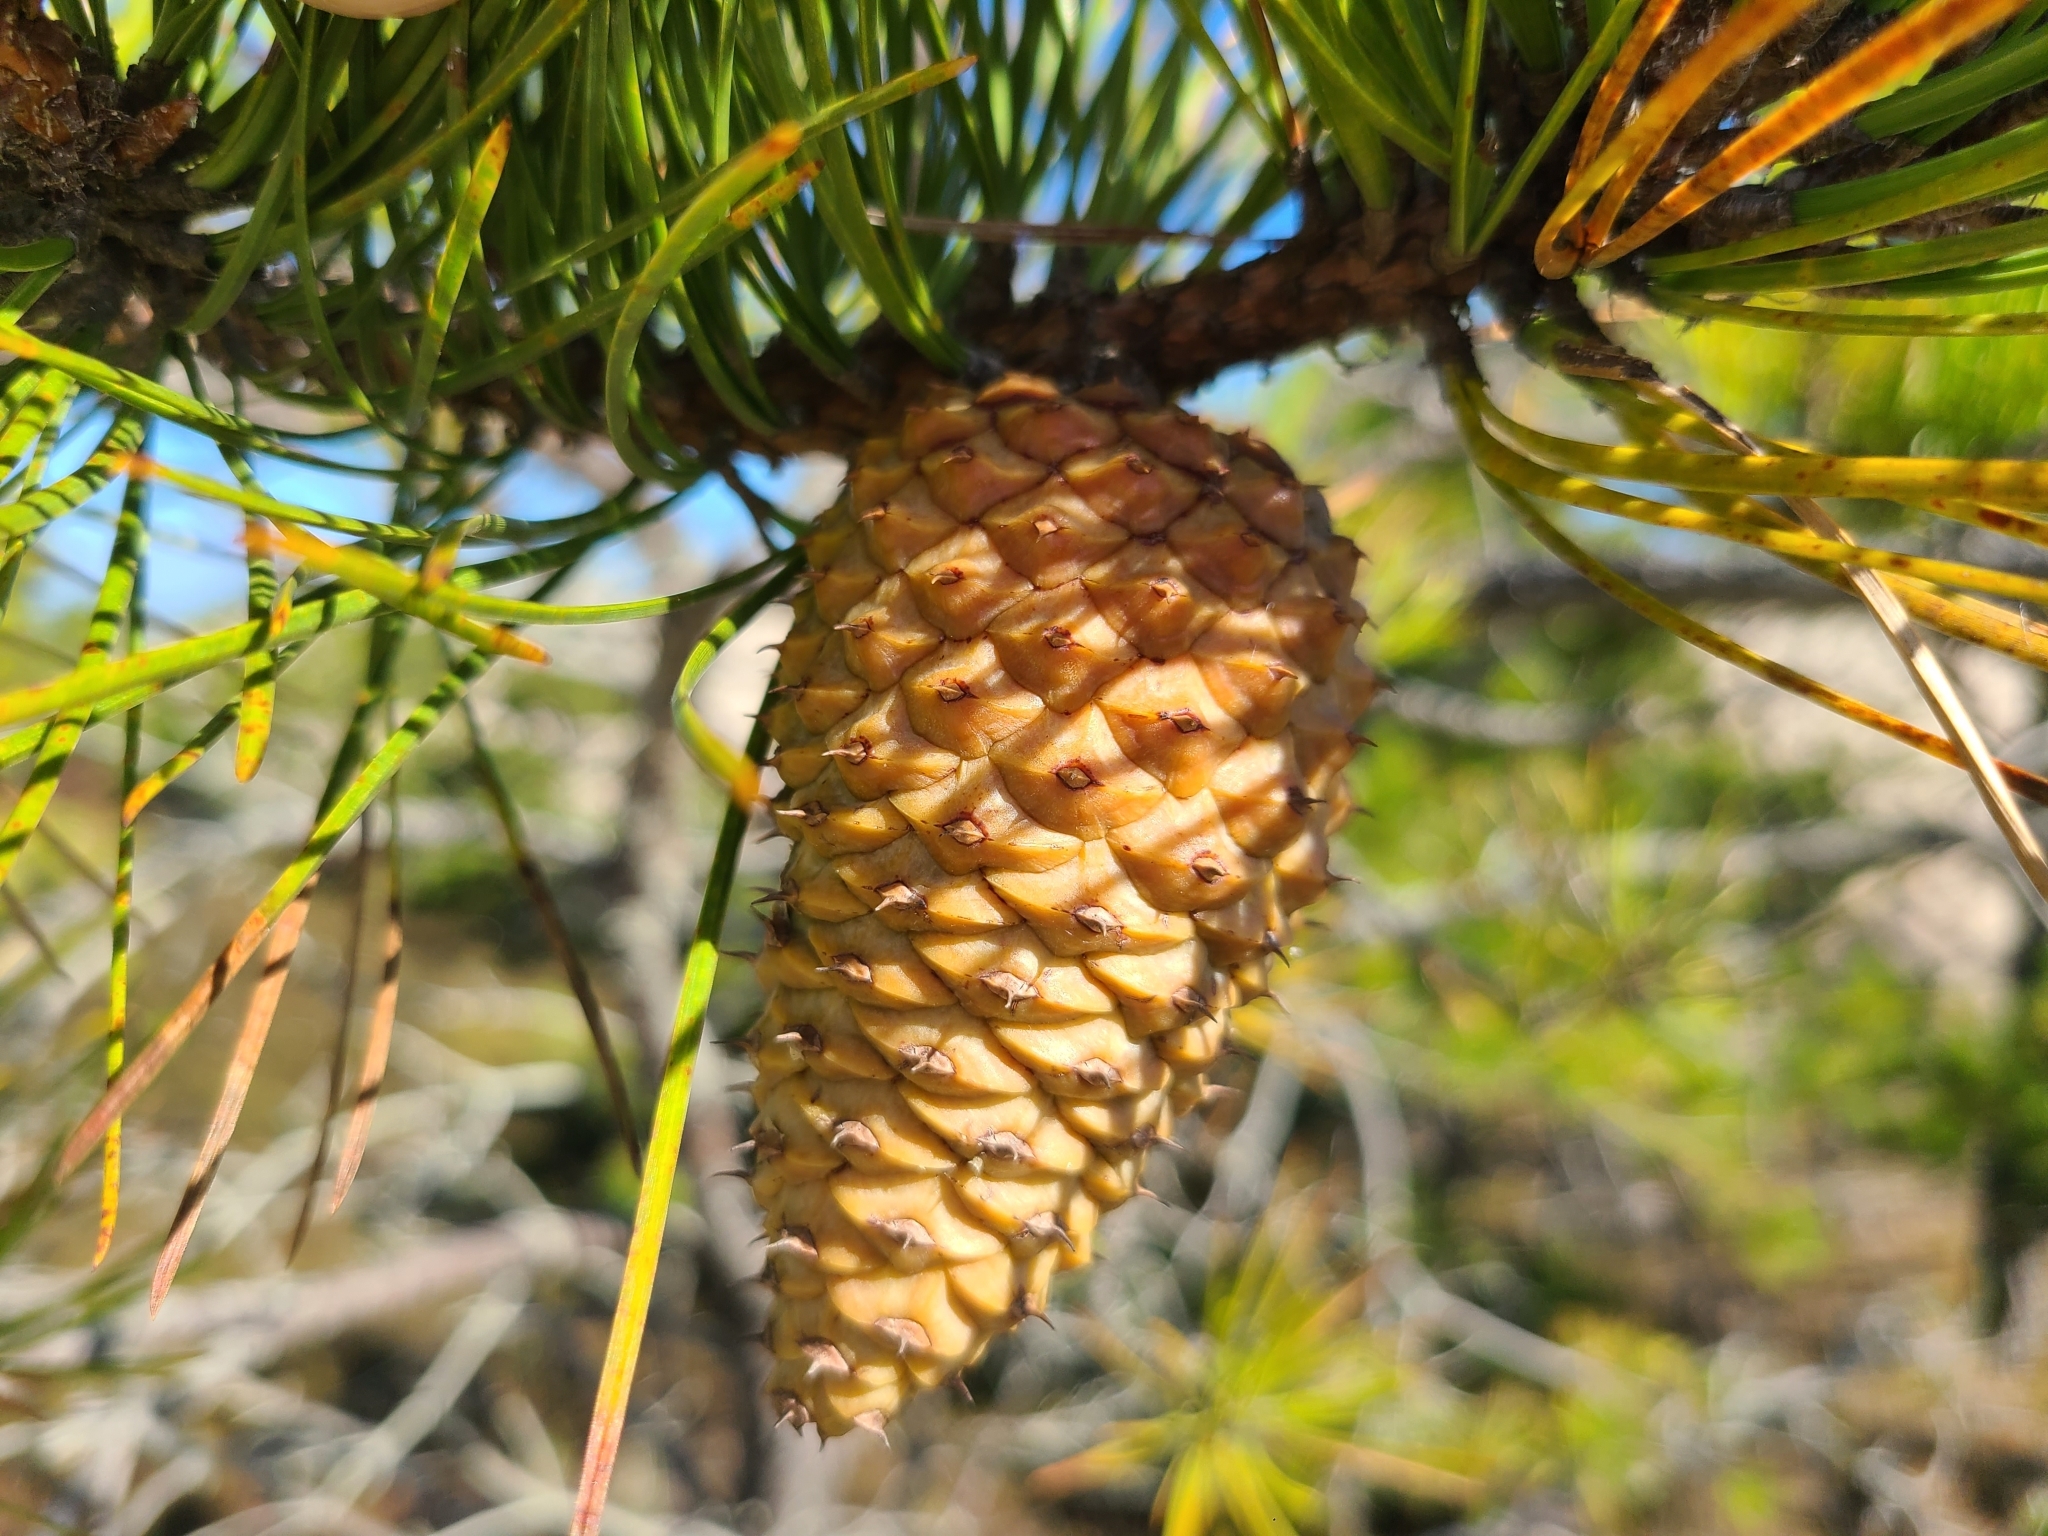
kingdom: Plantae
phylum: Tracheophyta
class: Pinopsida
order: Pinales
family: Pinaceae
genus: Pinus
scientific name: Pinus rigida
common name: Pitch pine
